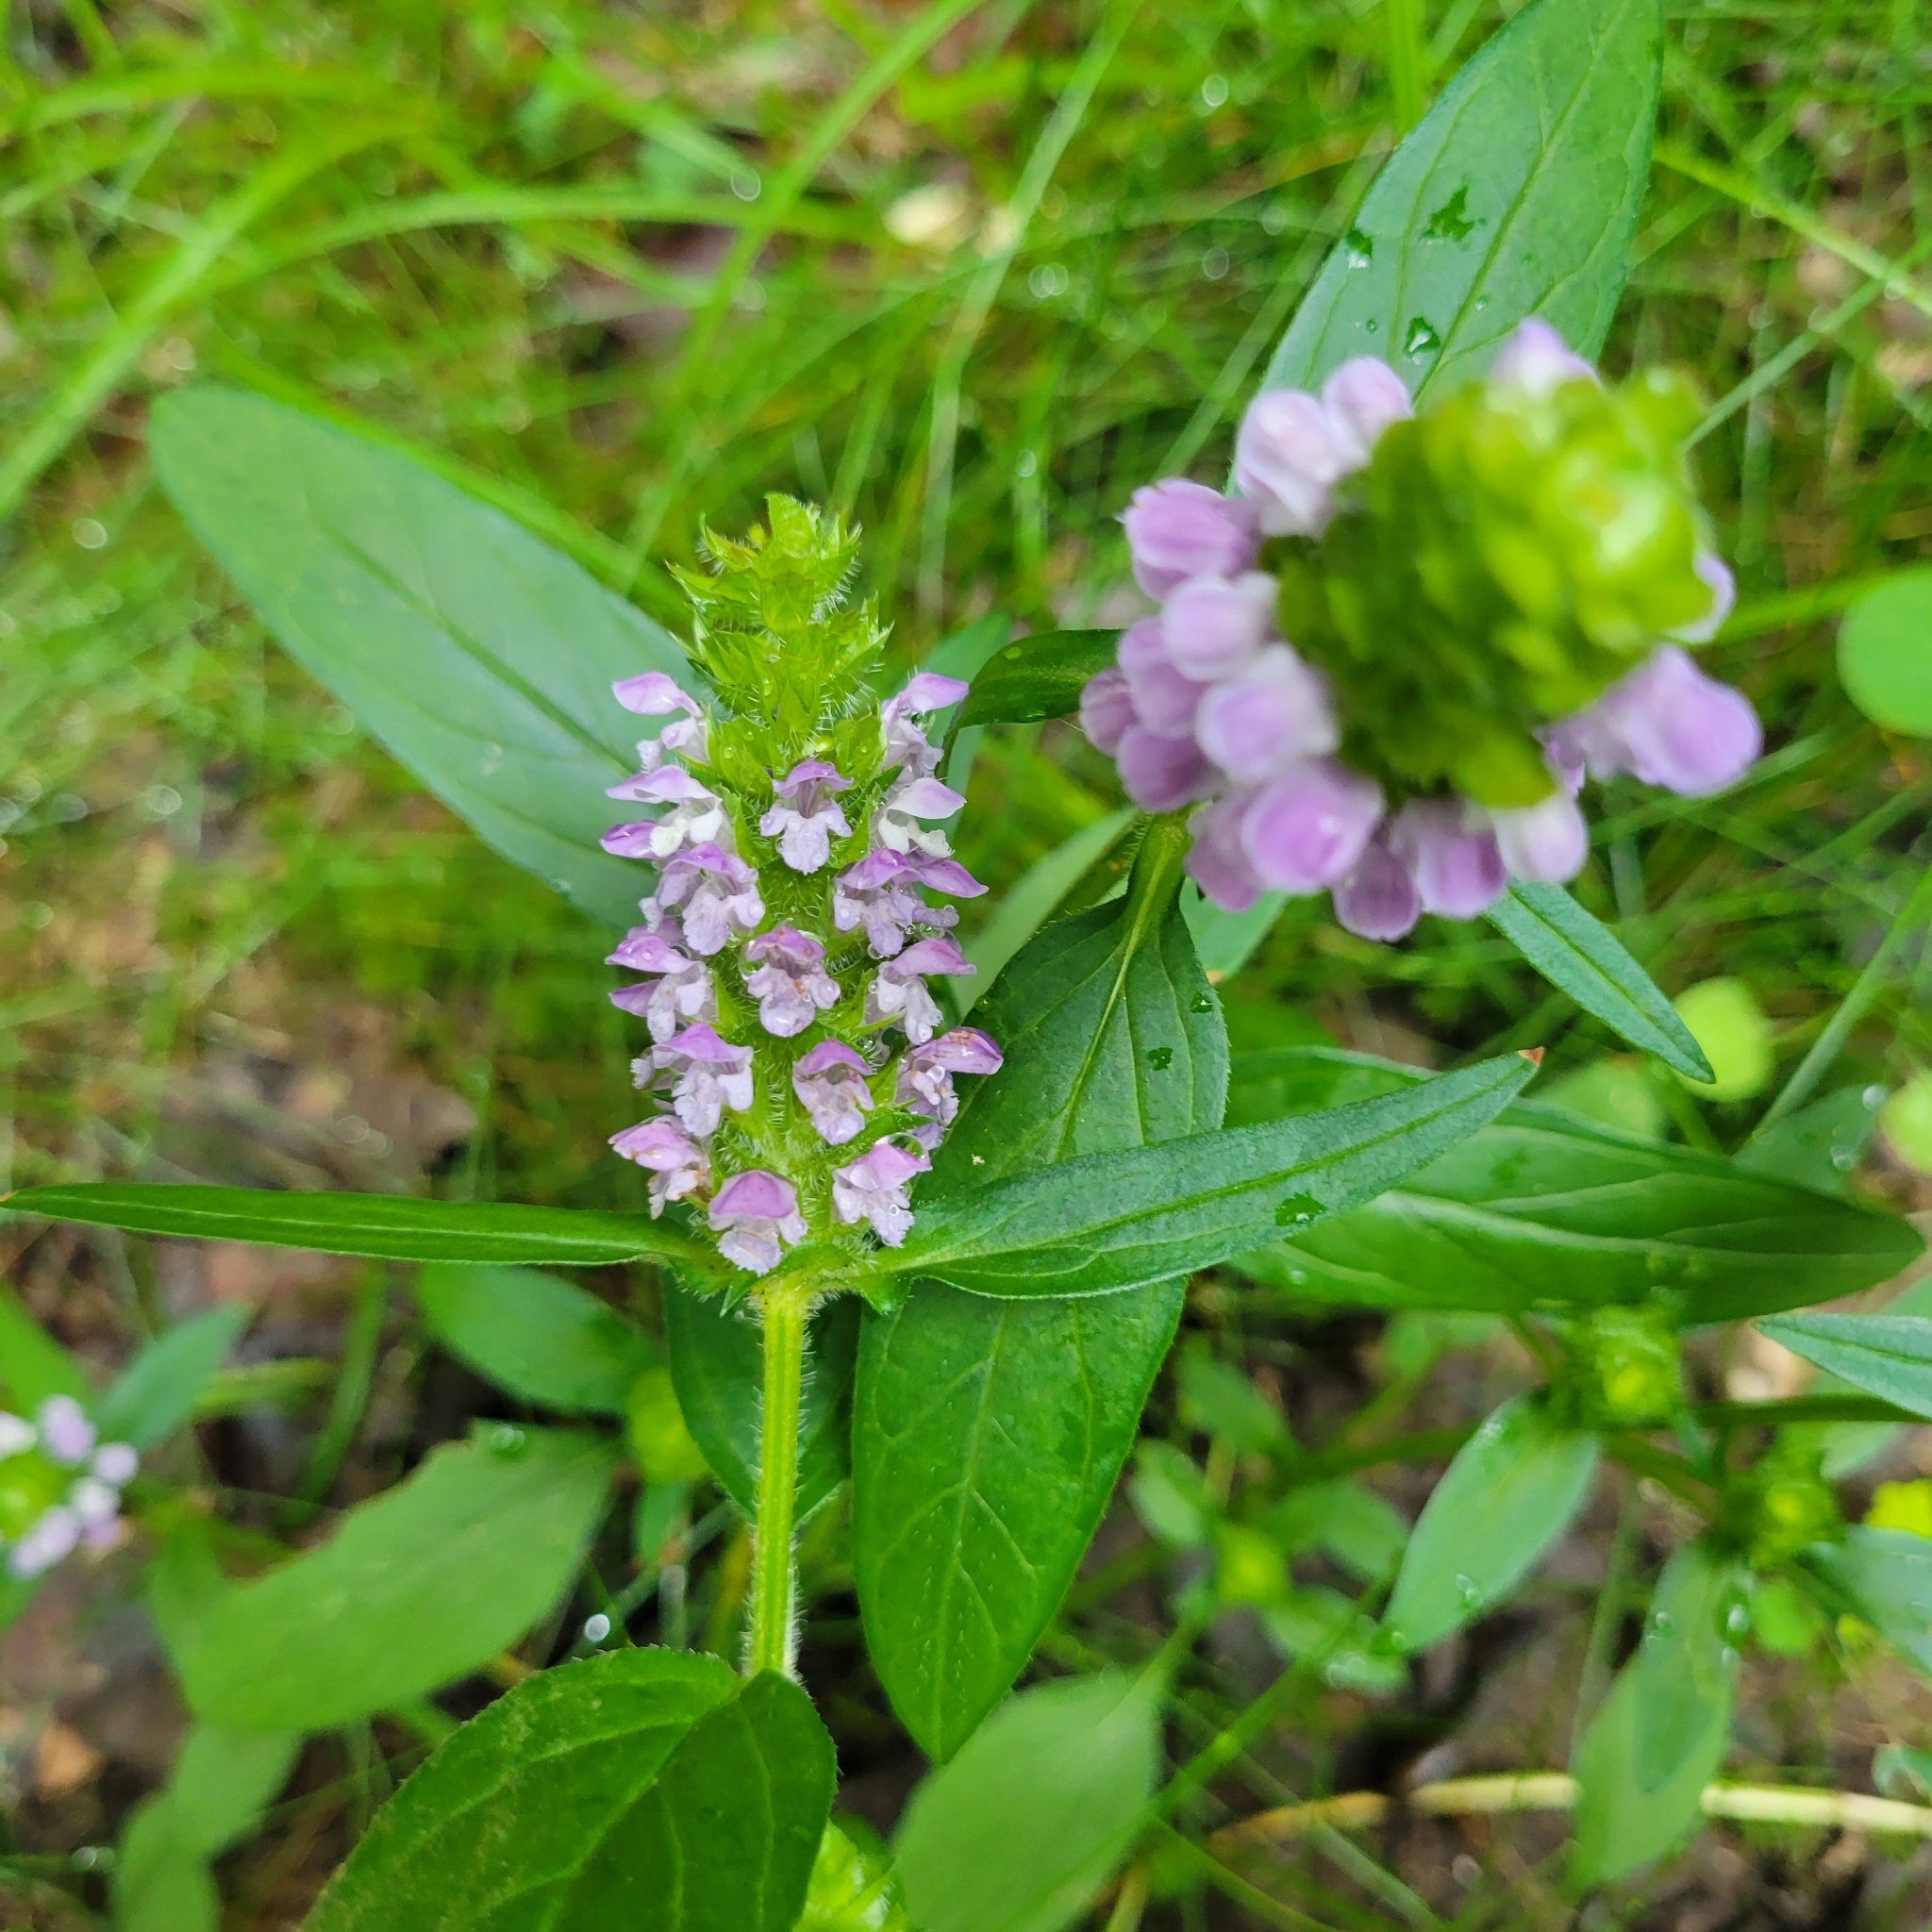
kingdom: Plantae
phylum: Tracheophyta
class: Magnoliopsida
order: Lamiales
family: Lamiaceae
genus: Prunella
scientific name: Prunella vulgaris
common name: Heal-all
